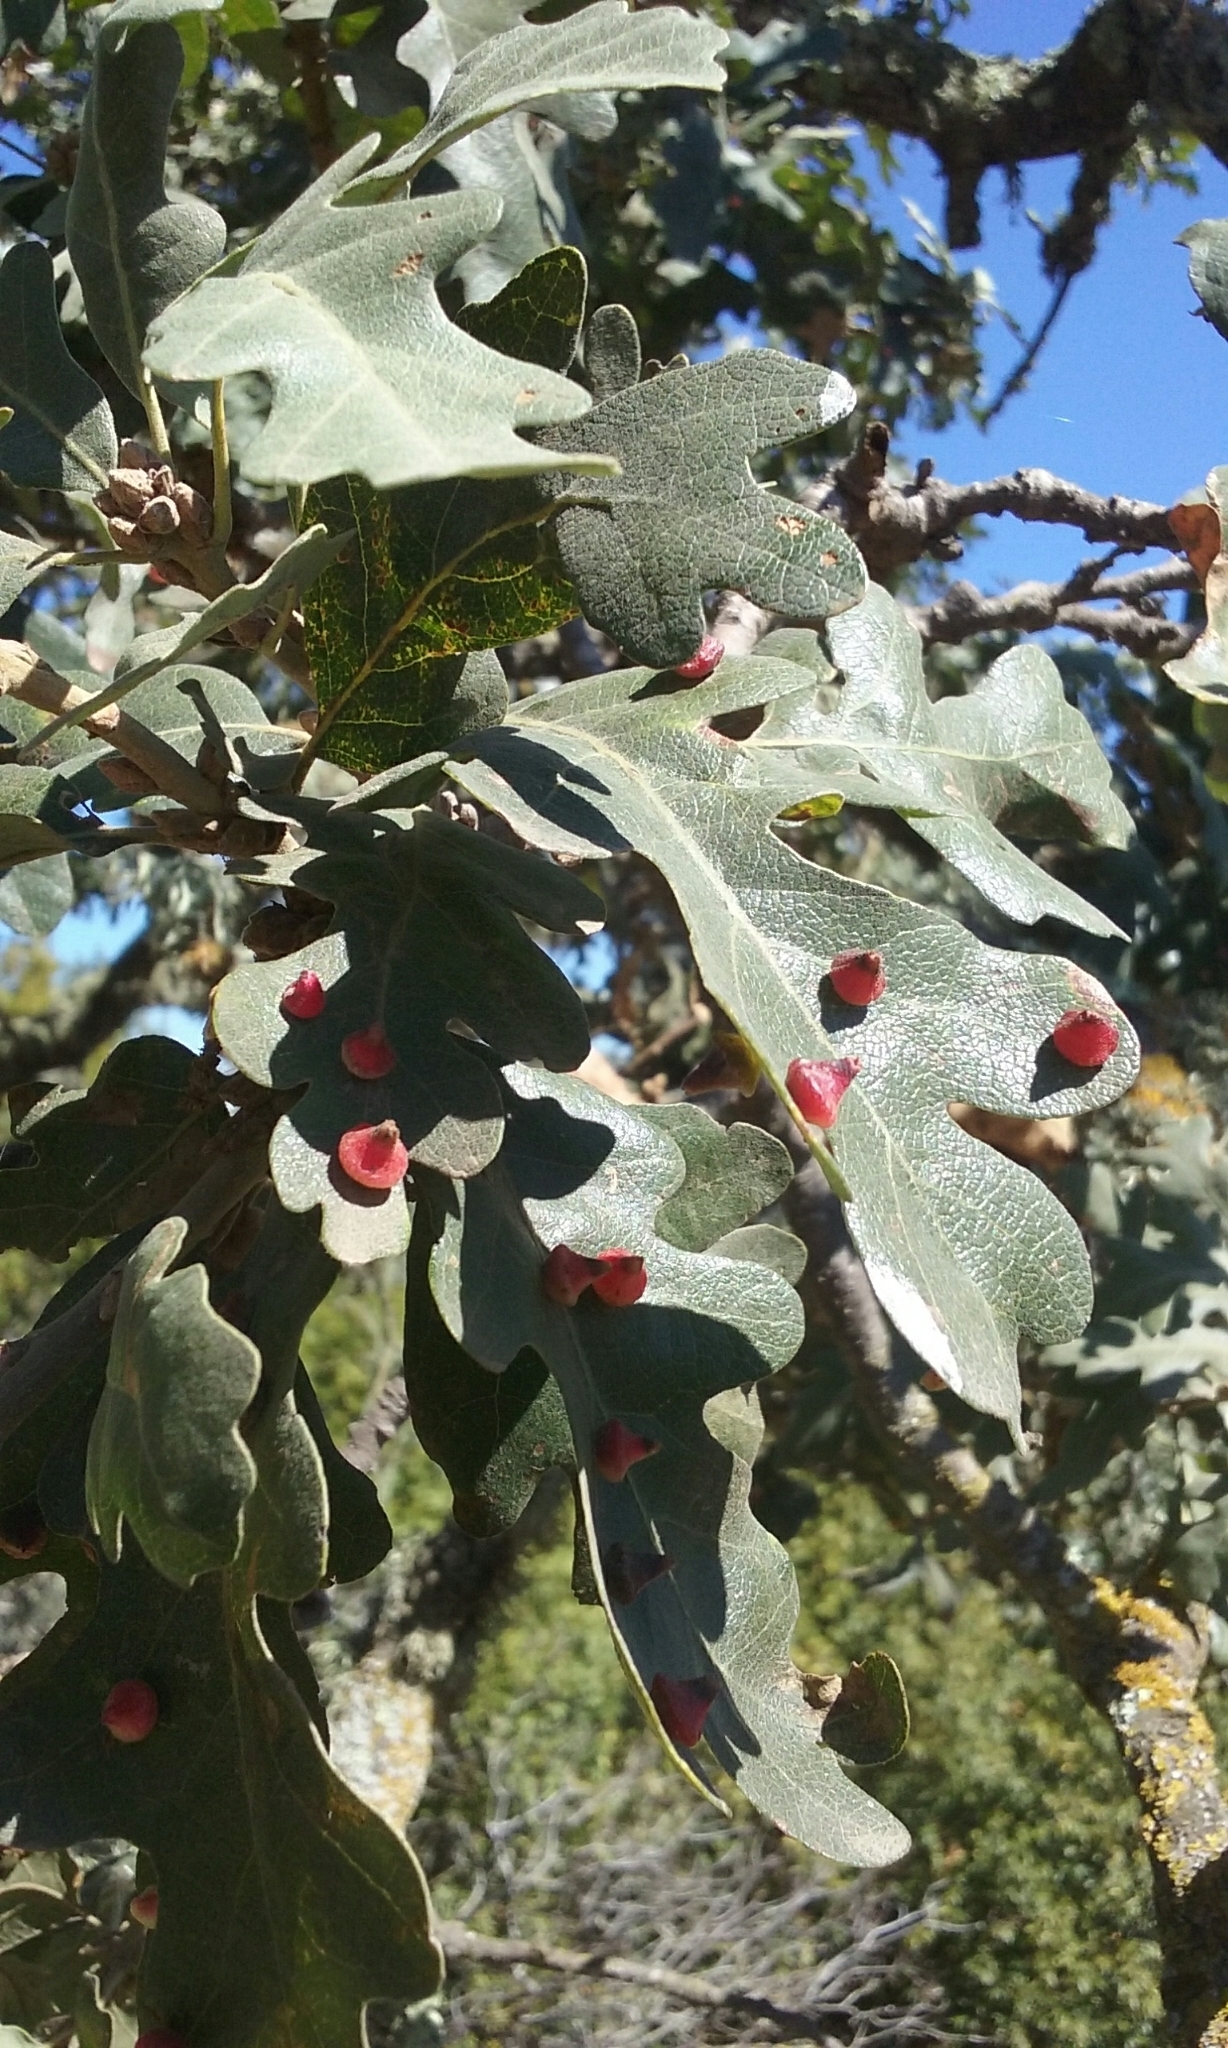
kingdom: Animalia
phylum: Arthropoda
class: Insecta
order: Hymenoptera
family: Cynipidae
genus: Andricus
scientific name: Andricus
